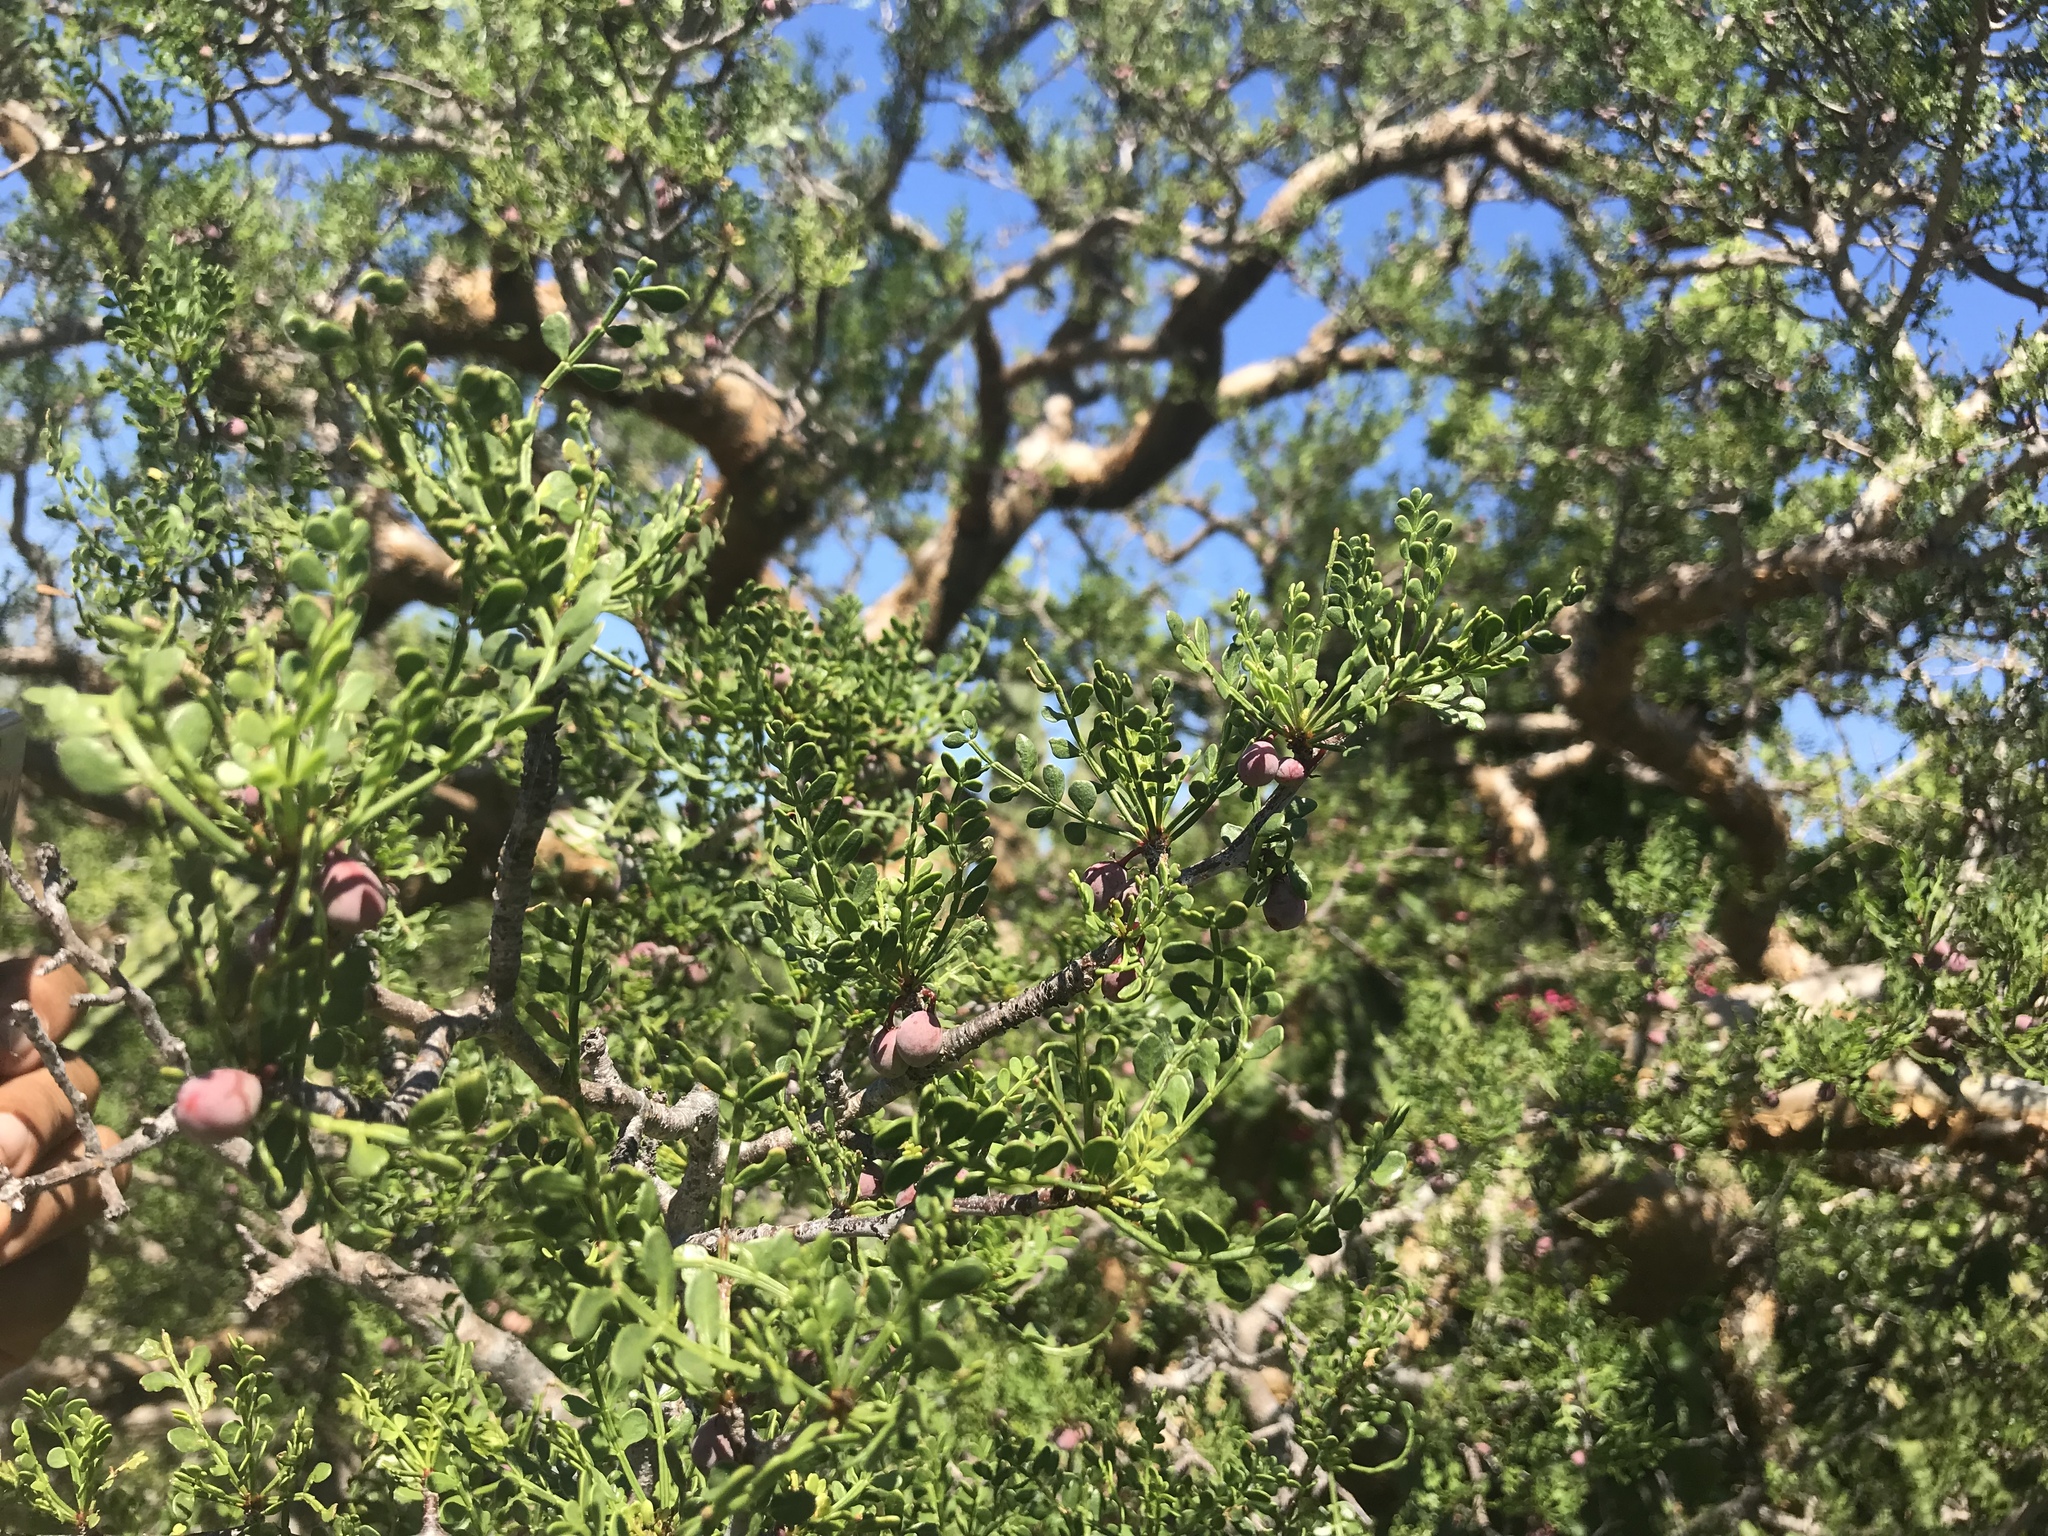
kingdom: Plantae
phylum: Tracheophyta
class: Magnoliopsida
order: Sapindales
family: Burseraceae
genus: Bursera
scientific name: Bursera exequielii
